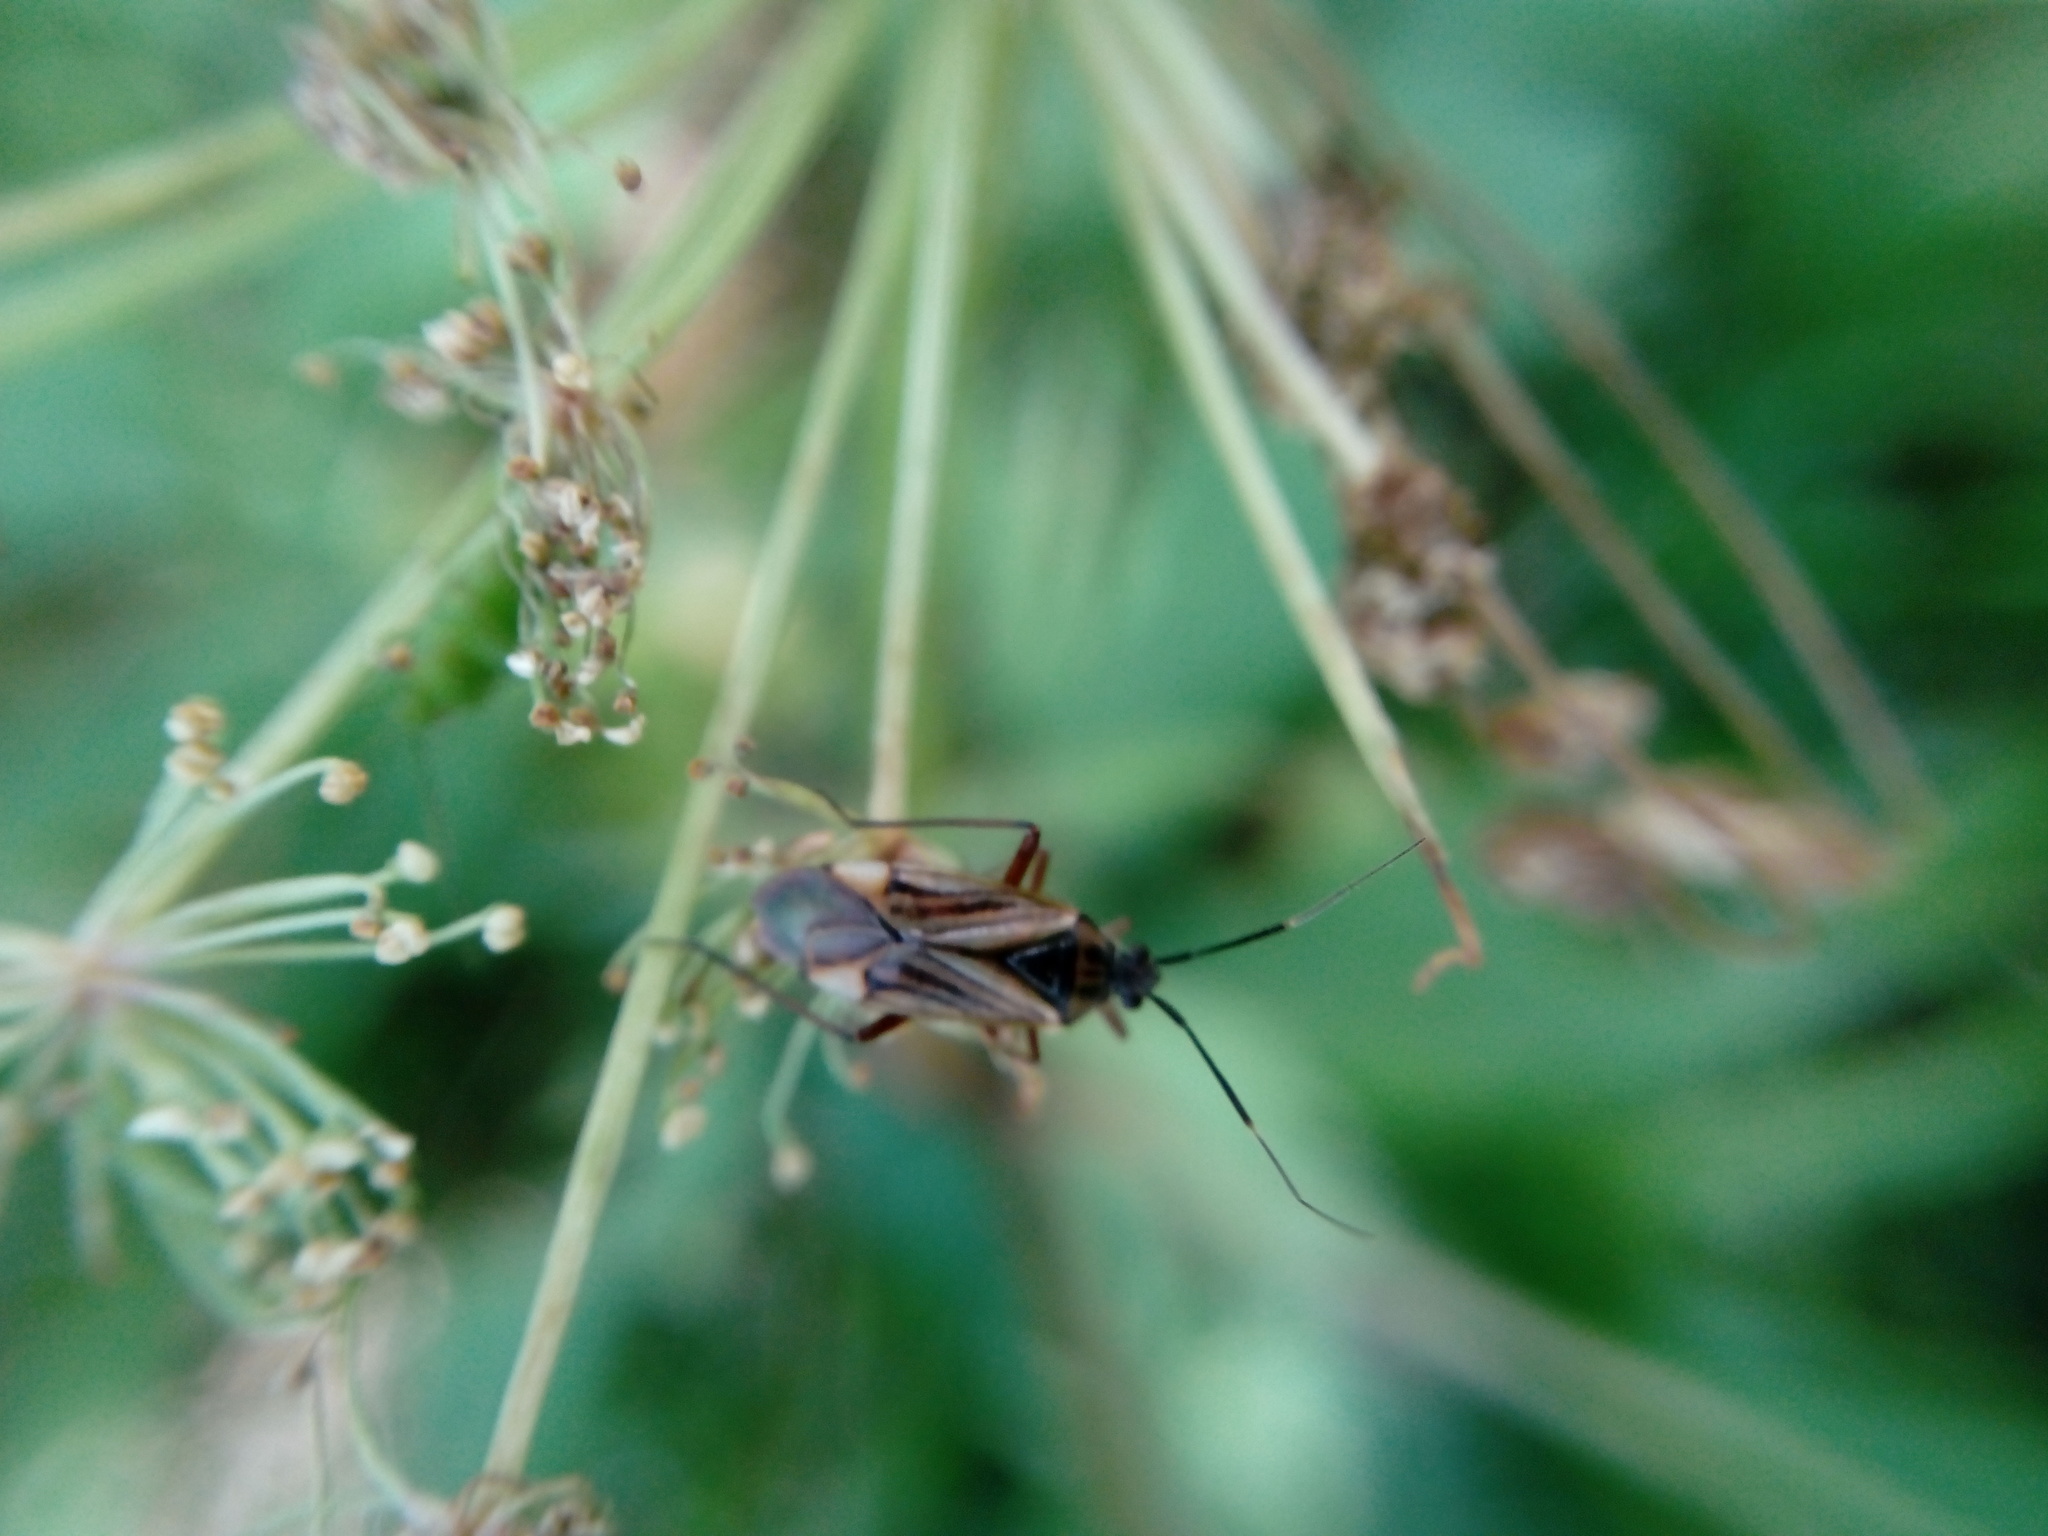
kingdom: Animalia
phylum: Arthropoda
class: Insecta
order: Hemiptera
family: Miridae
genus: Horwathia
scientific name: Horwathia lineolata
